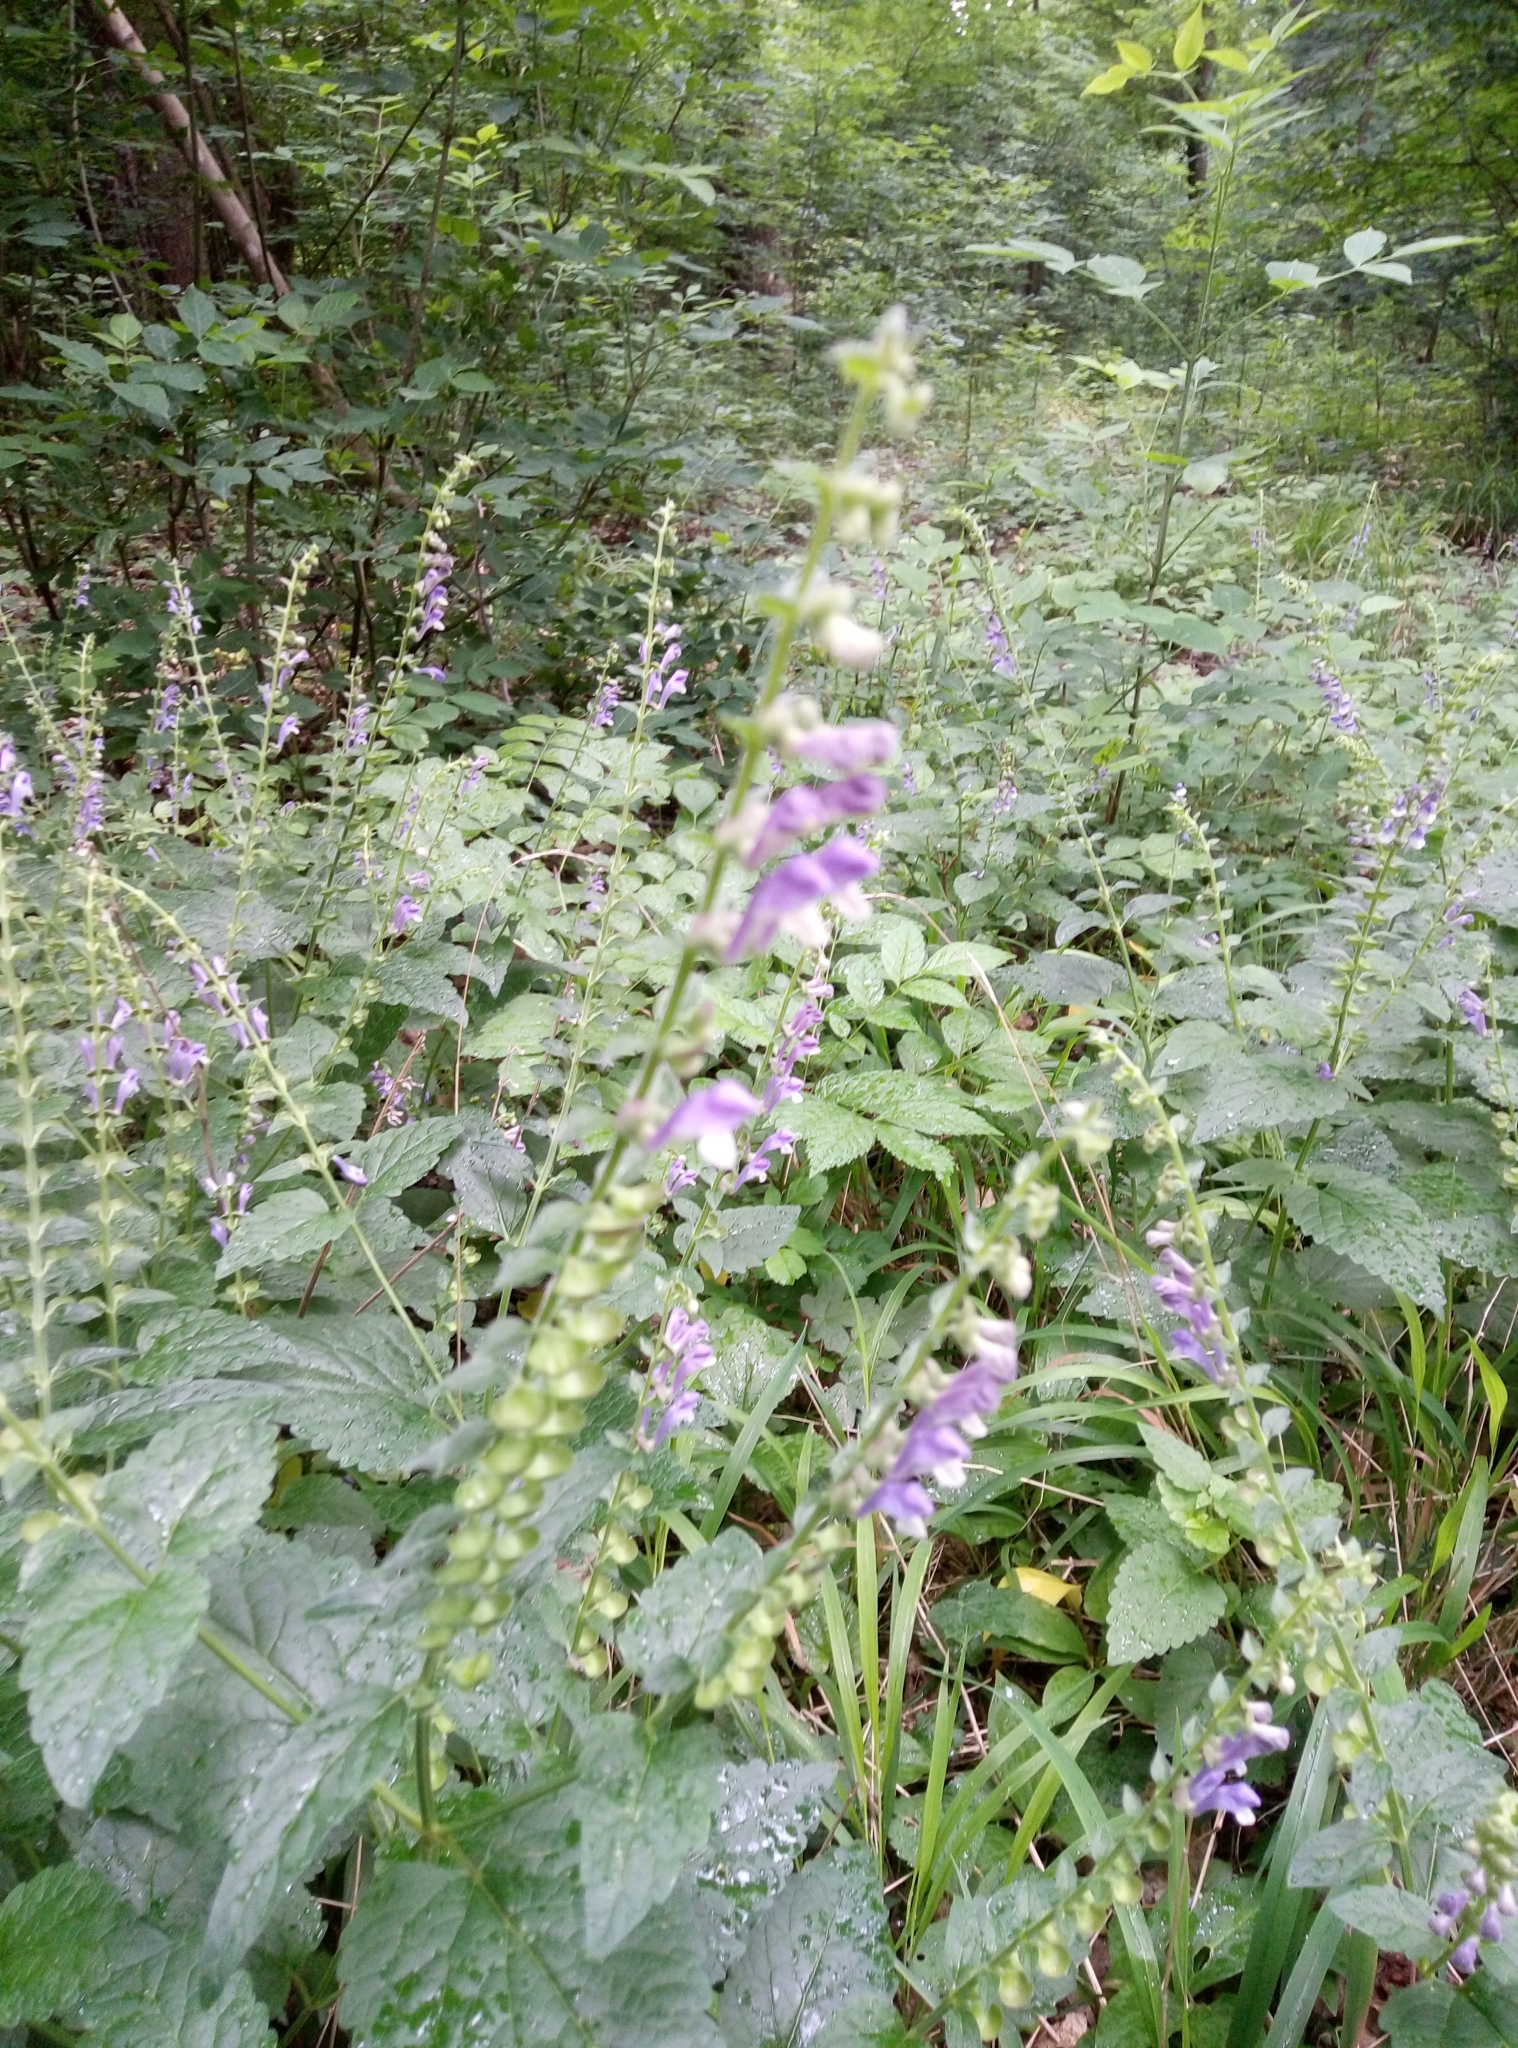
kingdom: Plantae
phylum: Tracheophyta
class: Magnoliopsida
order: Lamiales
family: Lamiaceae
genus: Scutellaria
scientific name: Scutellaria altissima
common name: Somerset skullcap
